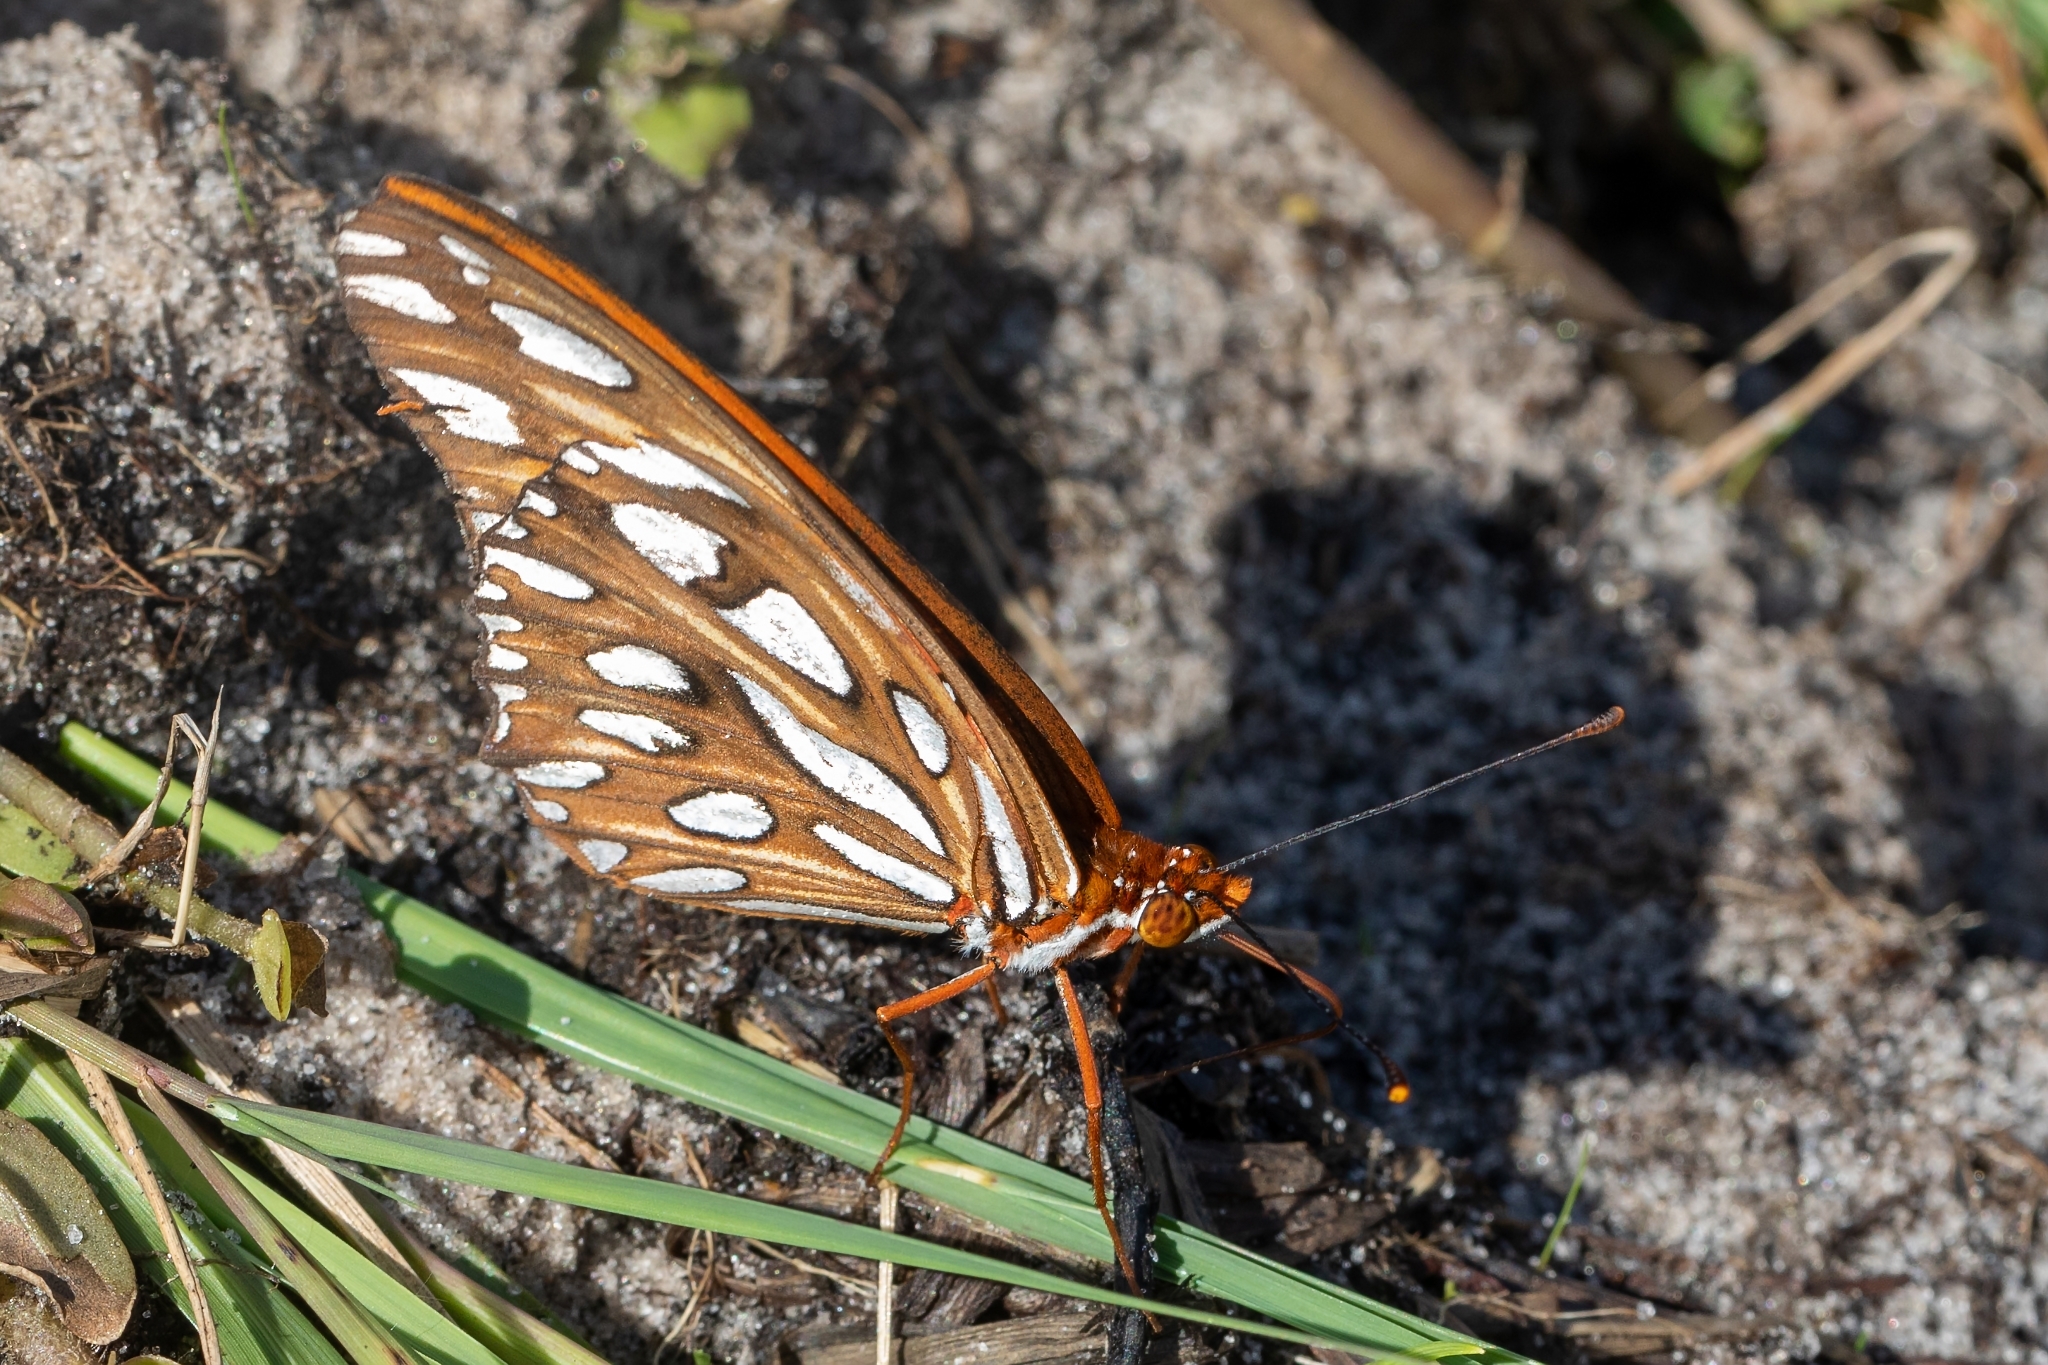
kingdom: Animalia
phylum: Arthropoda
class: Insecta
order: Lepidoptera
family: Nymphalidae
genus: Dione
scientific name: Dione vanillae
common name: Gulf fritillary
